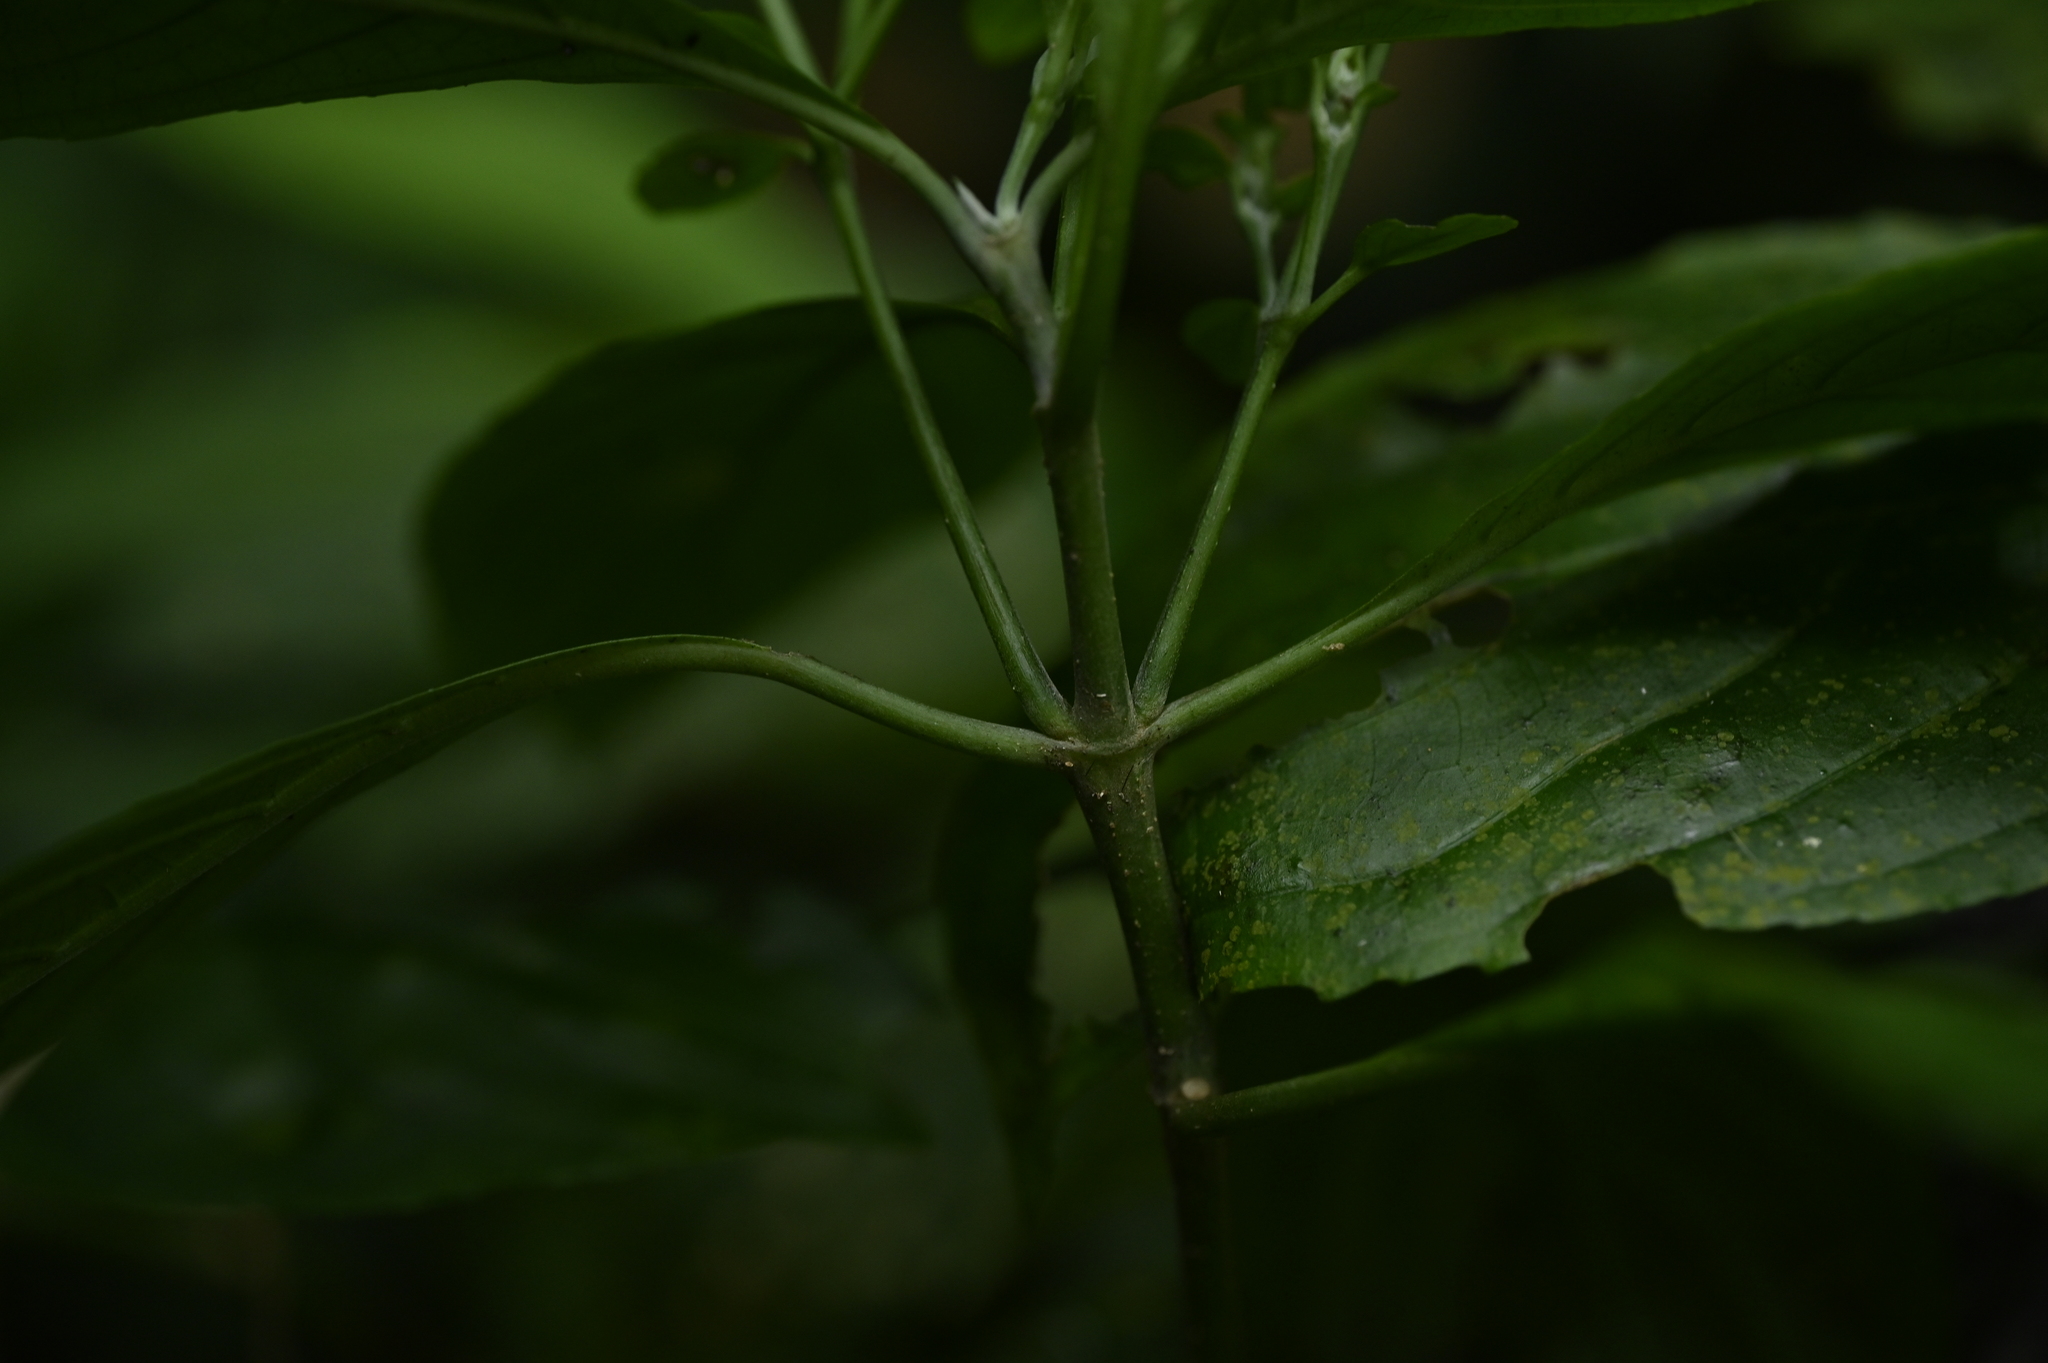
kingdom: Plantae
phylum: Tracheophyta
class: Magnoliopsida
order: Lamiales
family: Acanthaceae
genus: Strobilanthes
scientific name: Strobilanthes cusia
